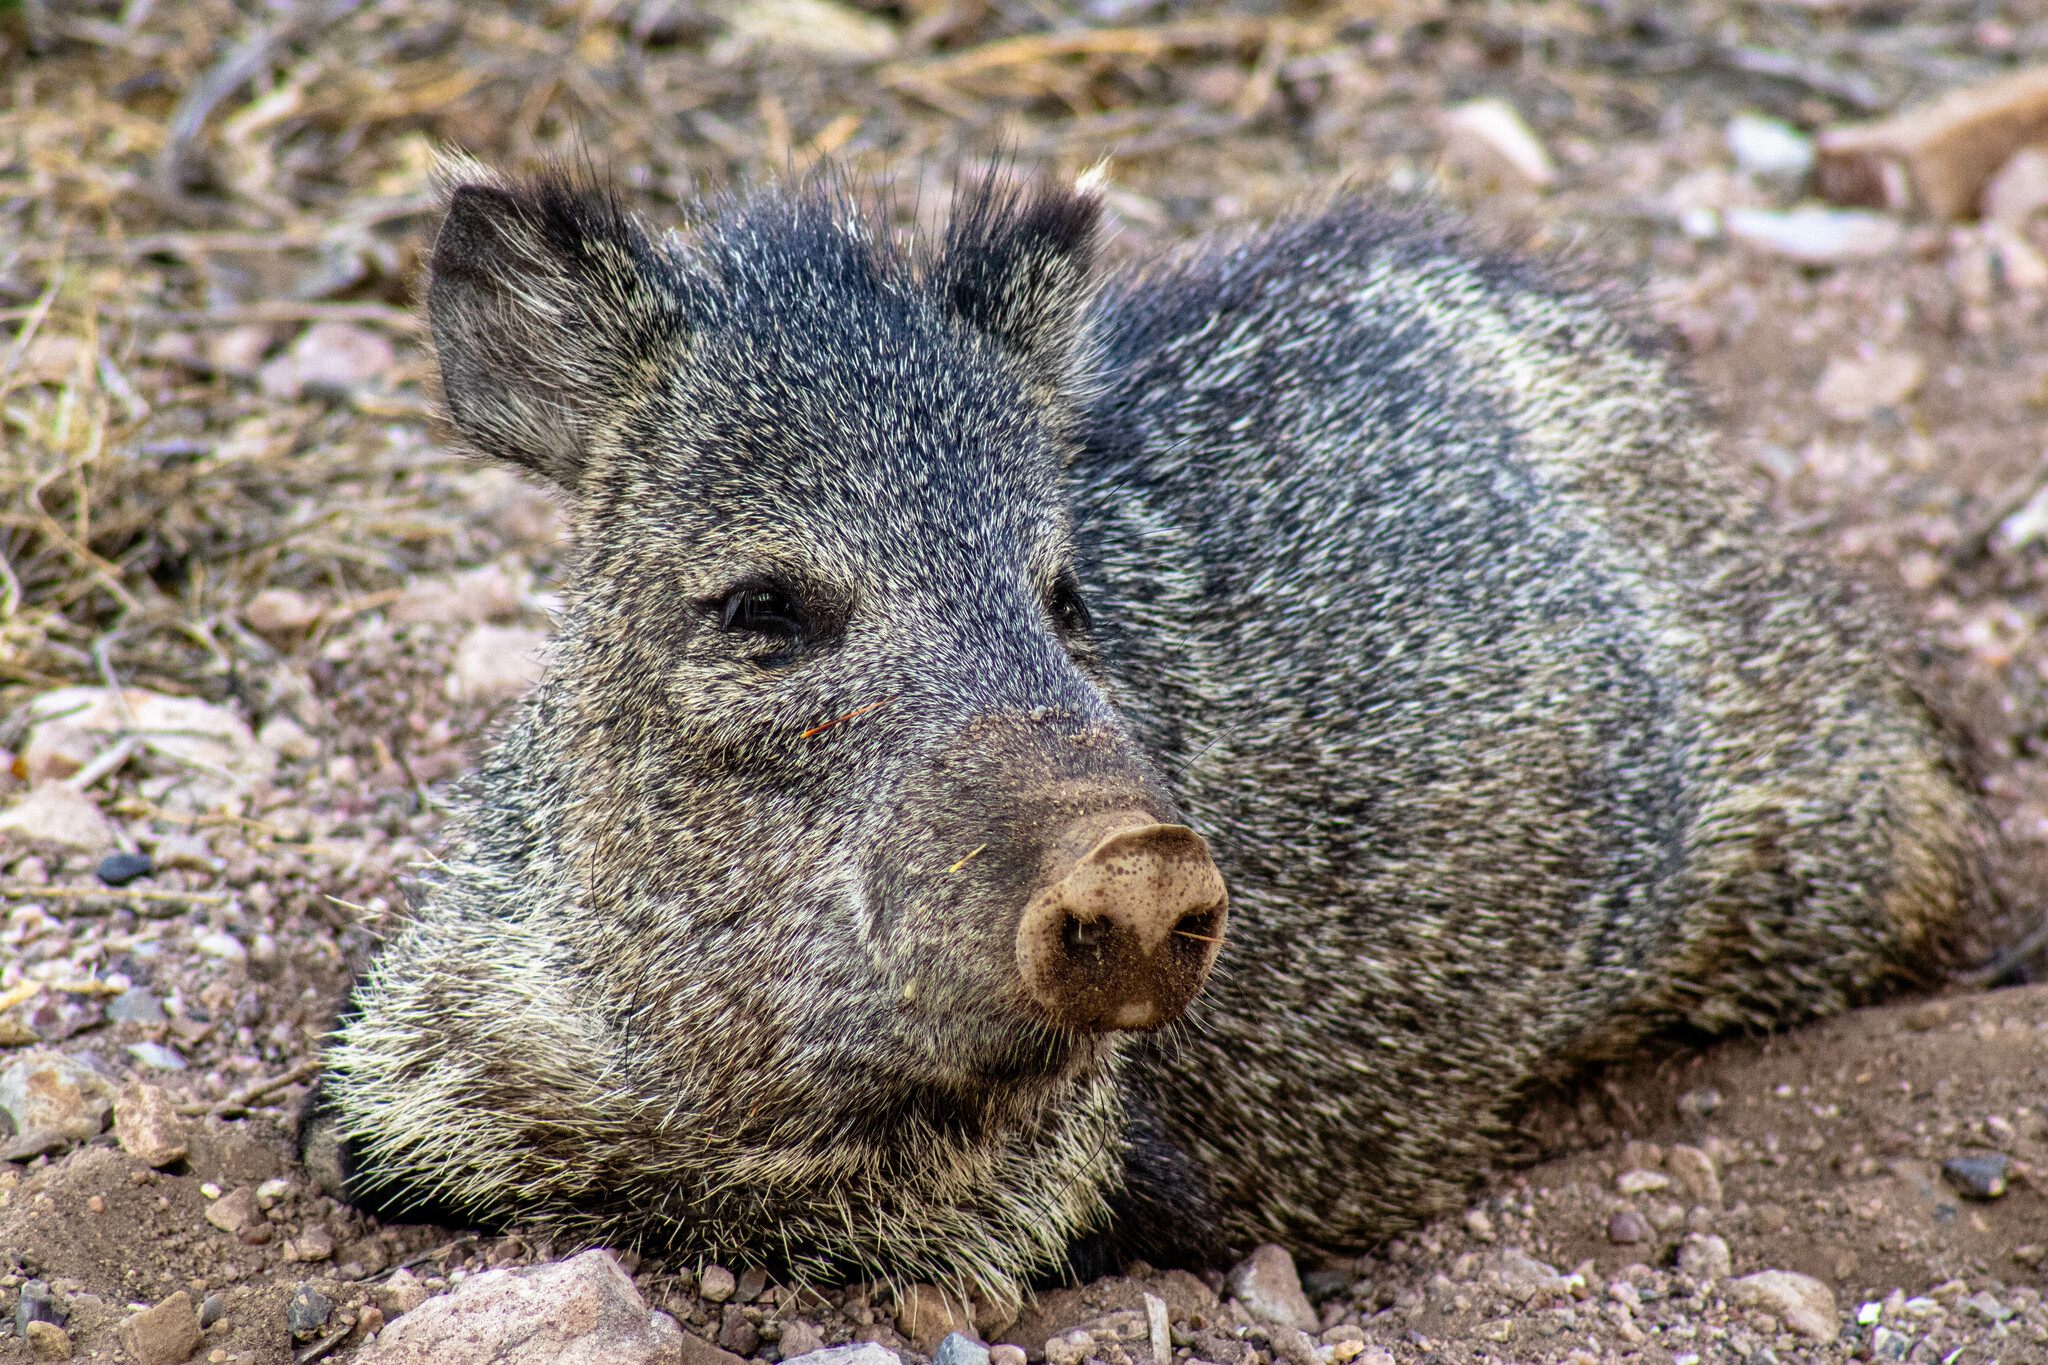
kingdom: Animalia
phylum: Chordata
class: Mammalia
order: Artiodactyla
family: Tayassuidae
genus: Pecari
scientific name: Pecari tajacu
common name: Collared peccary
